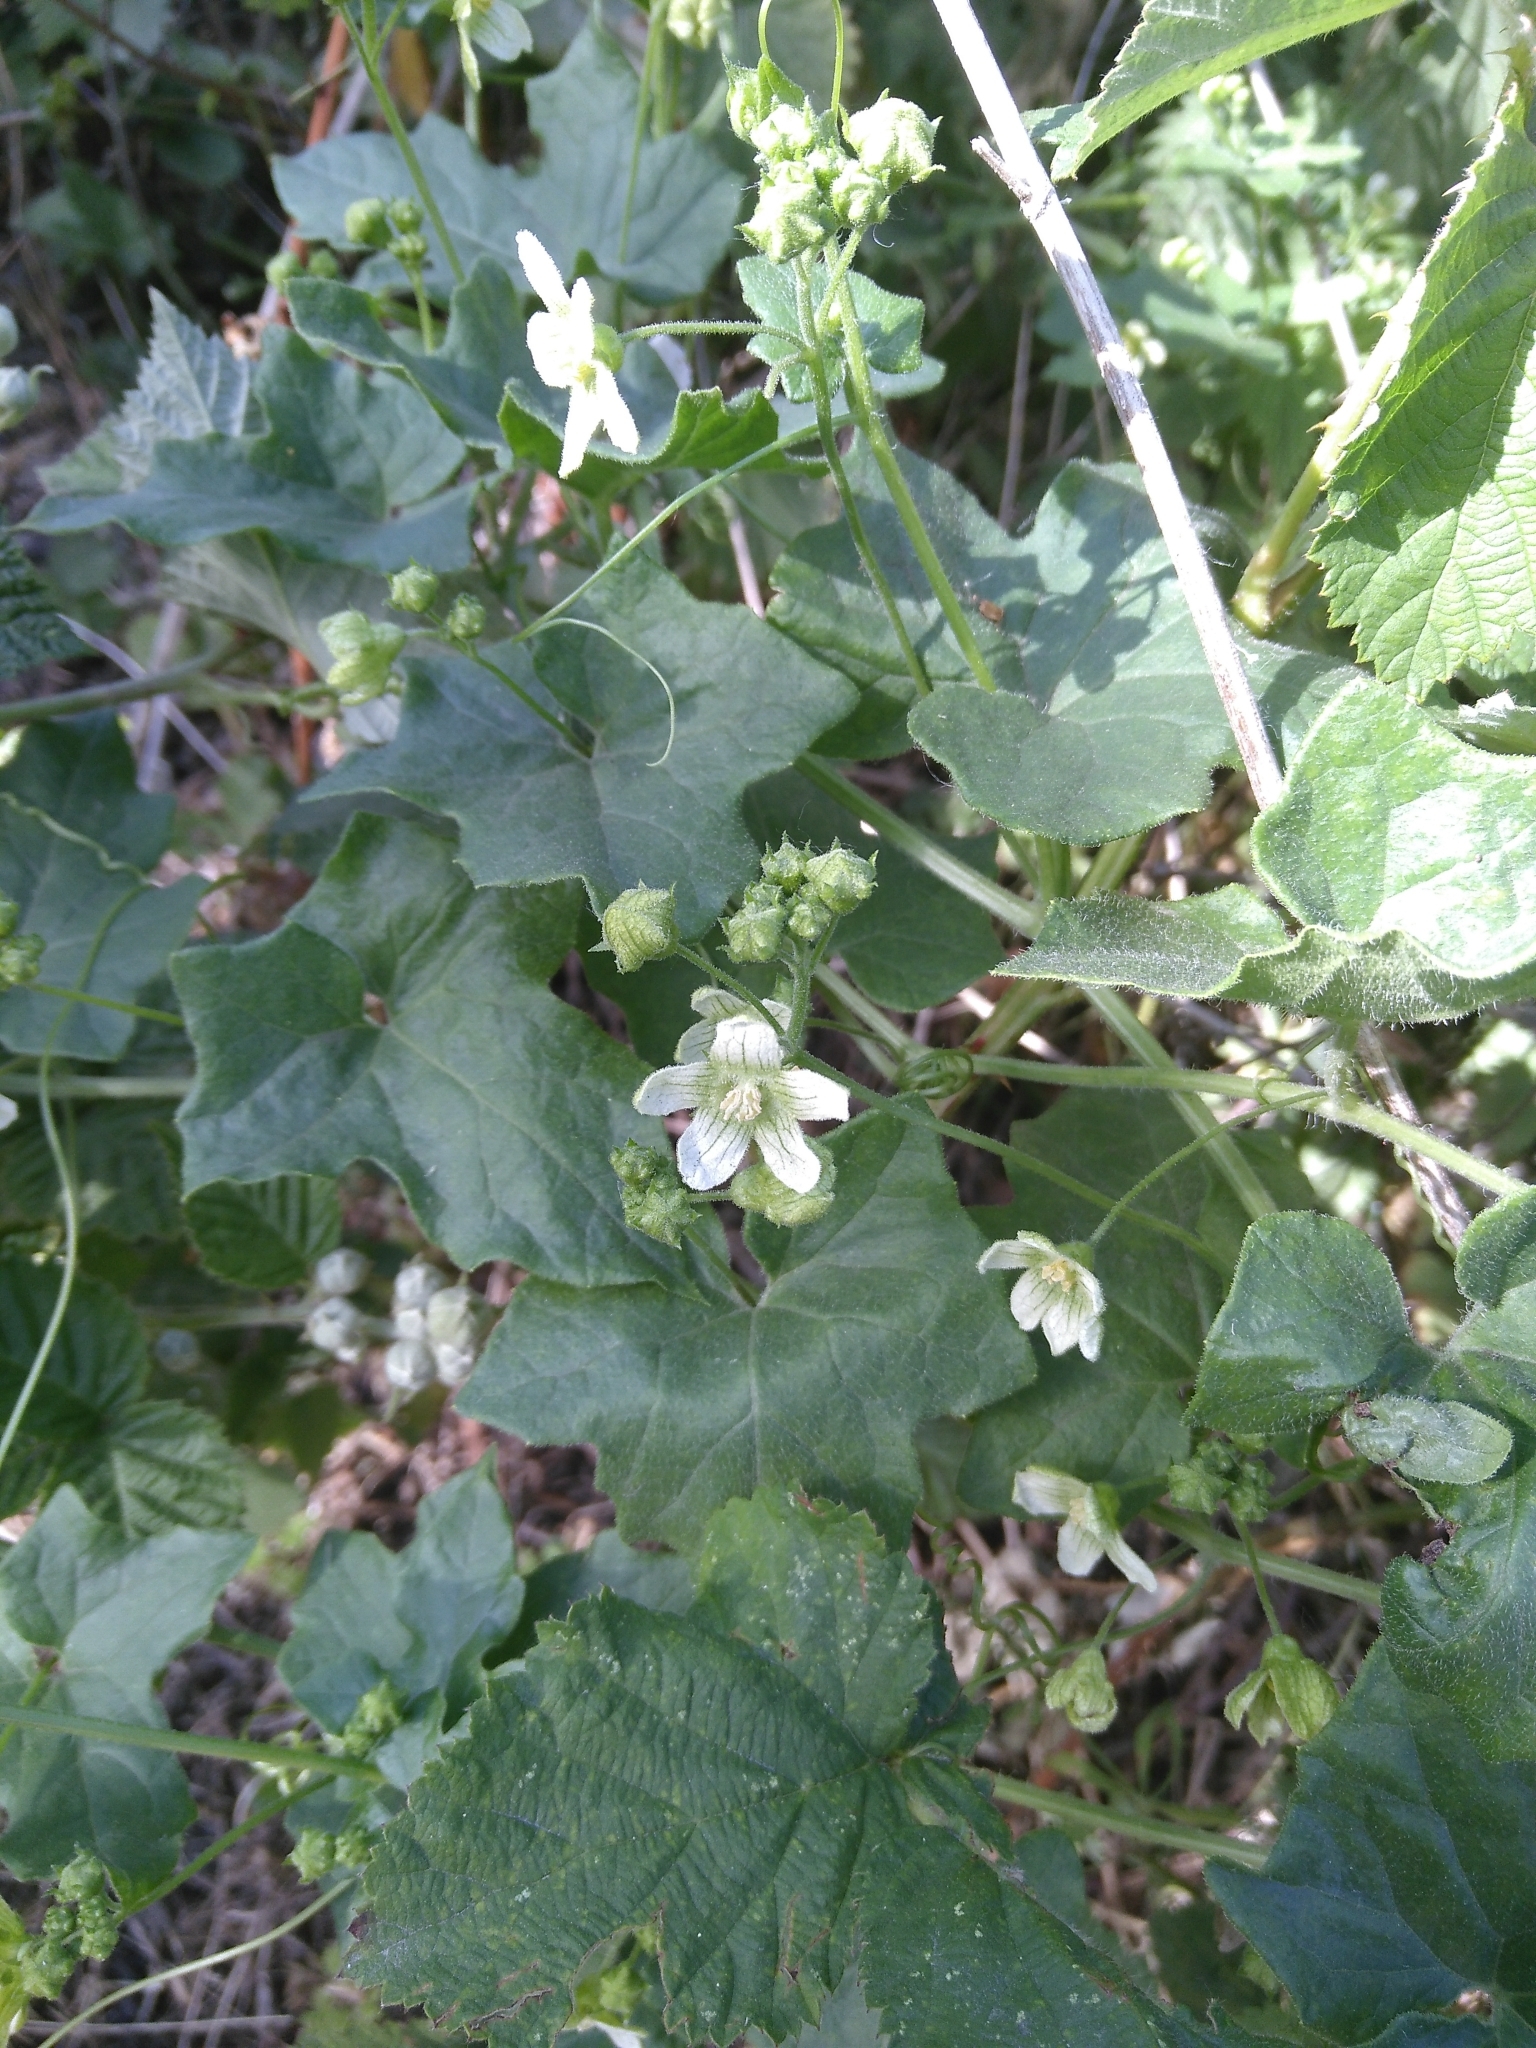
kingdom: Plantae
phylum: Tracheophyta
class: Magnoliopsida
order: Cucurbitales
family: Cucurbitaceae
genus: Bryonia
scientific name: Bryonia cretica
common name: Cretan bryony
